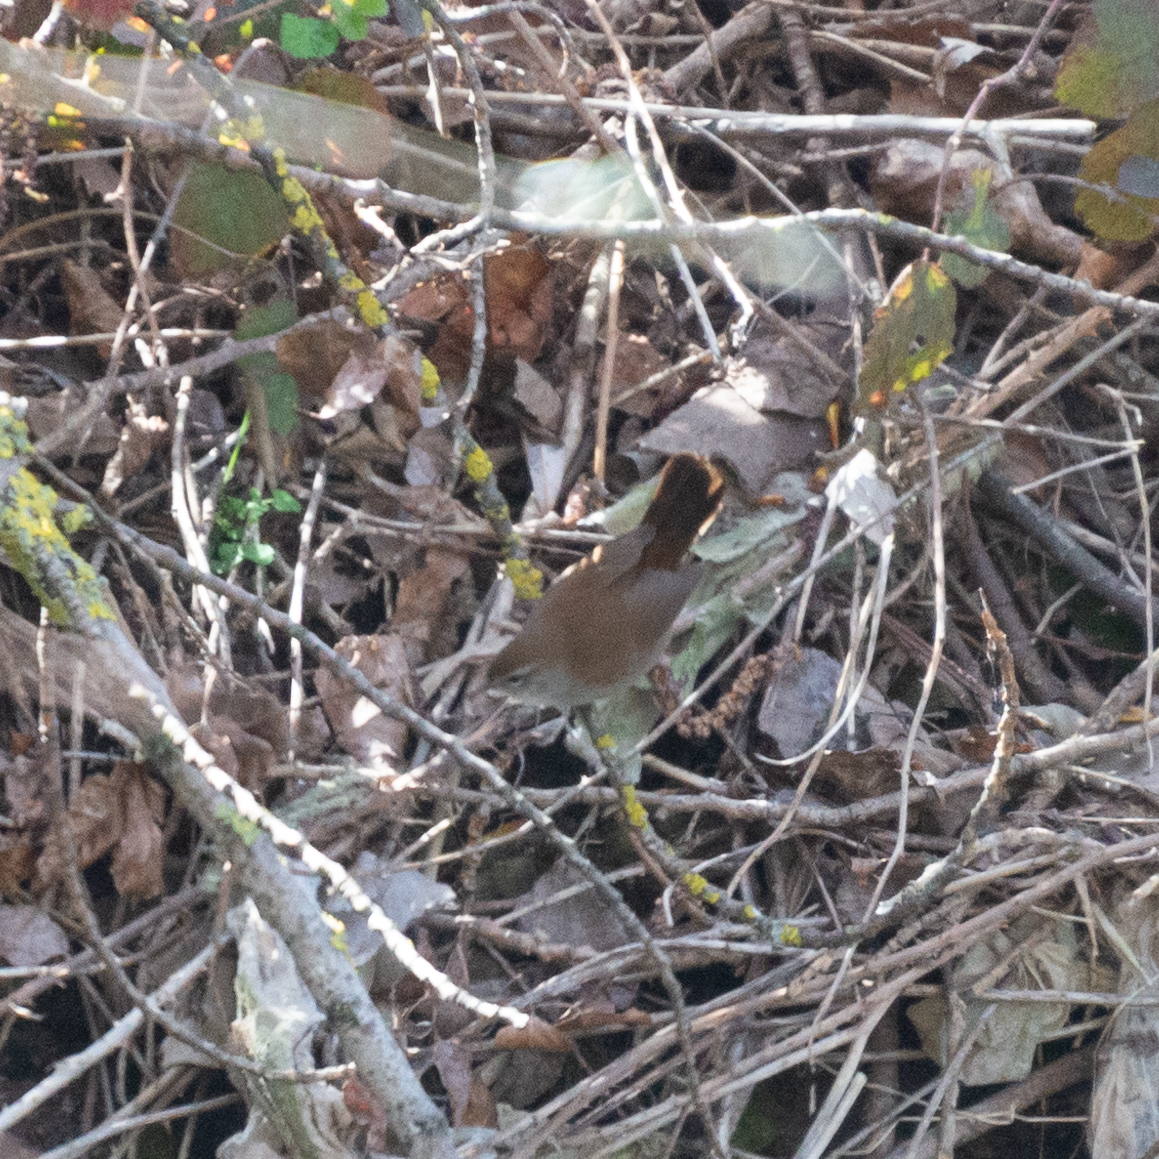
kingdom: Animalia
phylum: Chordata
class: Aves
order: Passeriformes
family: Cettiidae
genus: Cettia
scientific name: Cettia cetti
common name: Cetti's warbler
